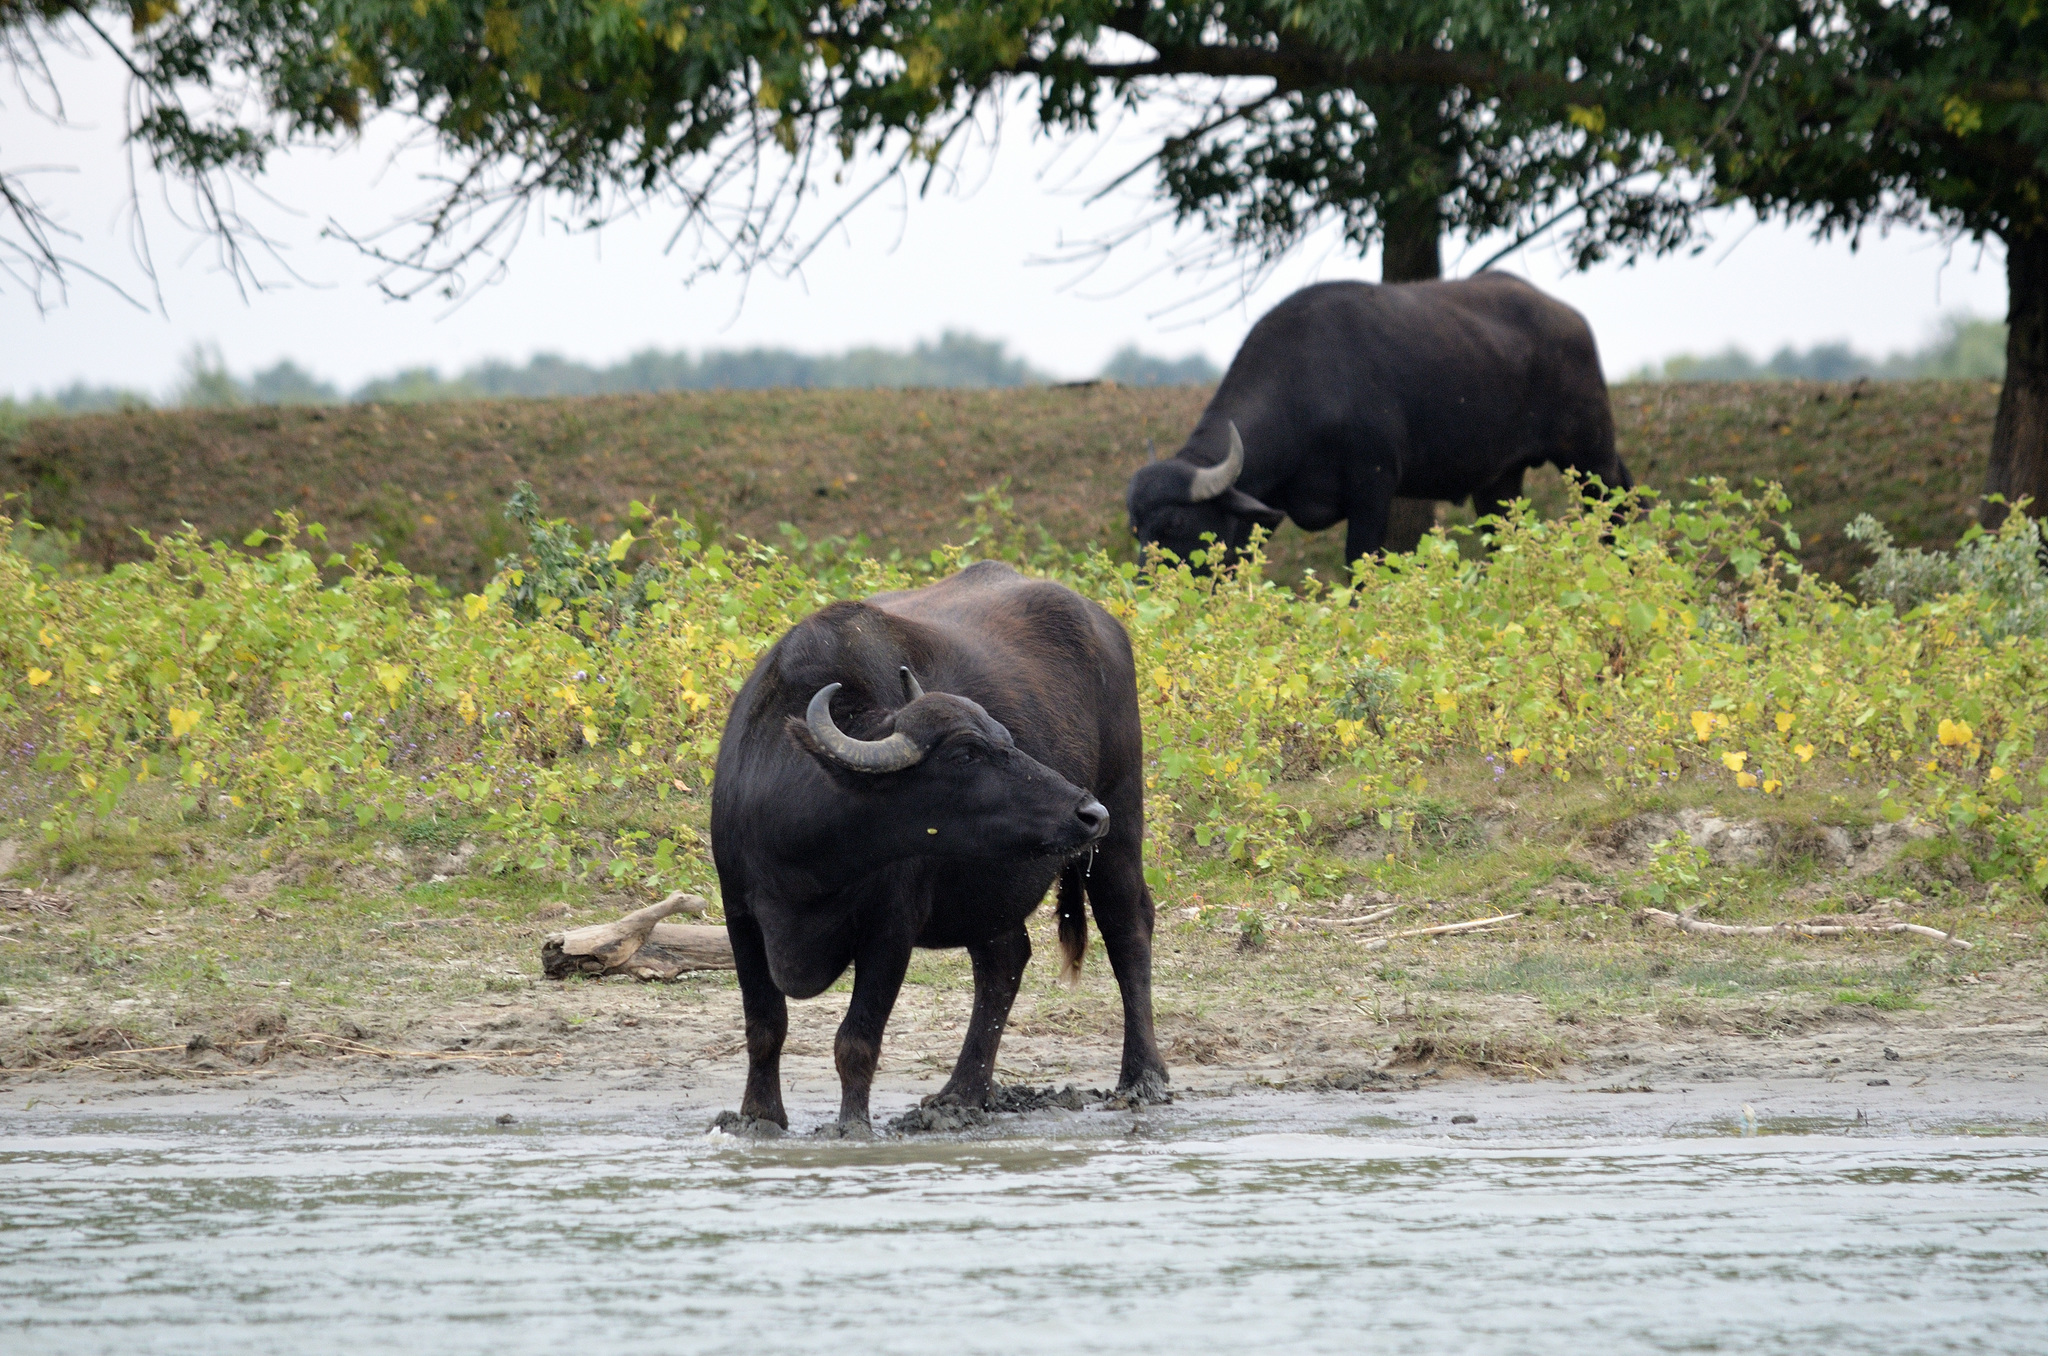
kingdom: Animalia
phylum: Chordata
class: Mammalia
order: Artiodactyla
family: Bovidae
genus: Bubalus
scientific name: Bubalus bubalis
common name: Water buffalo
